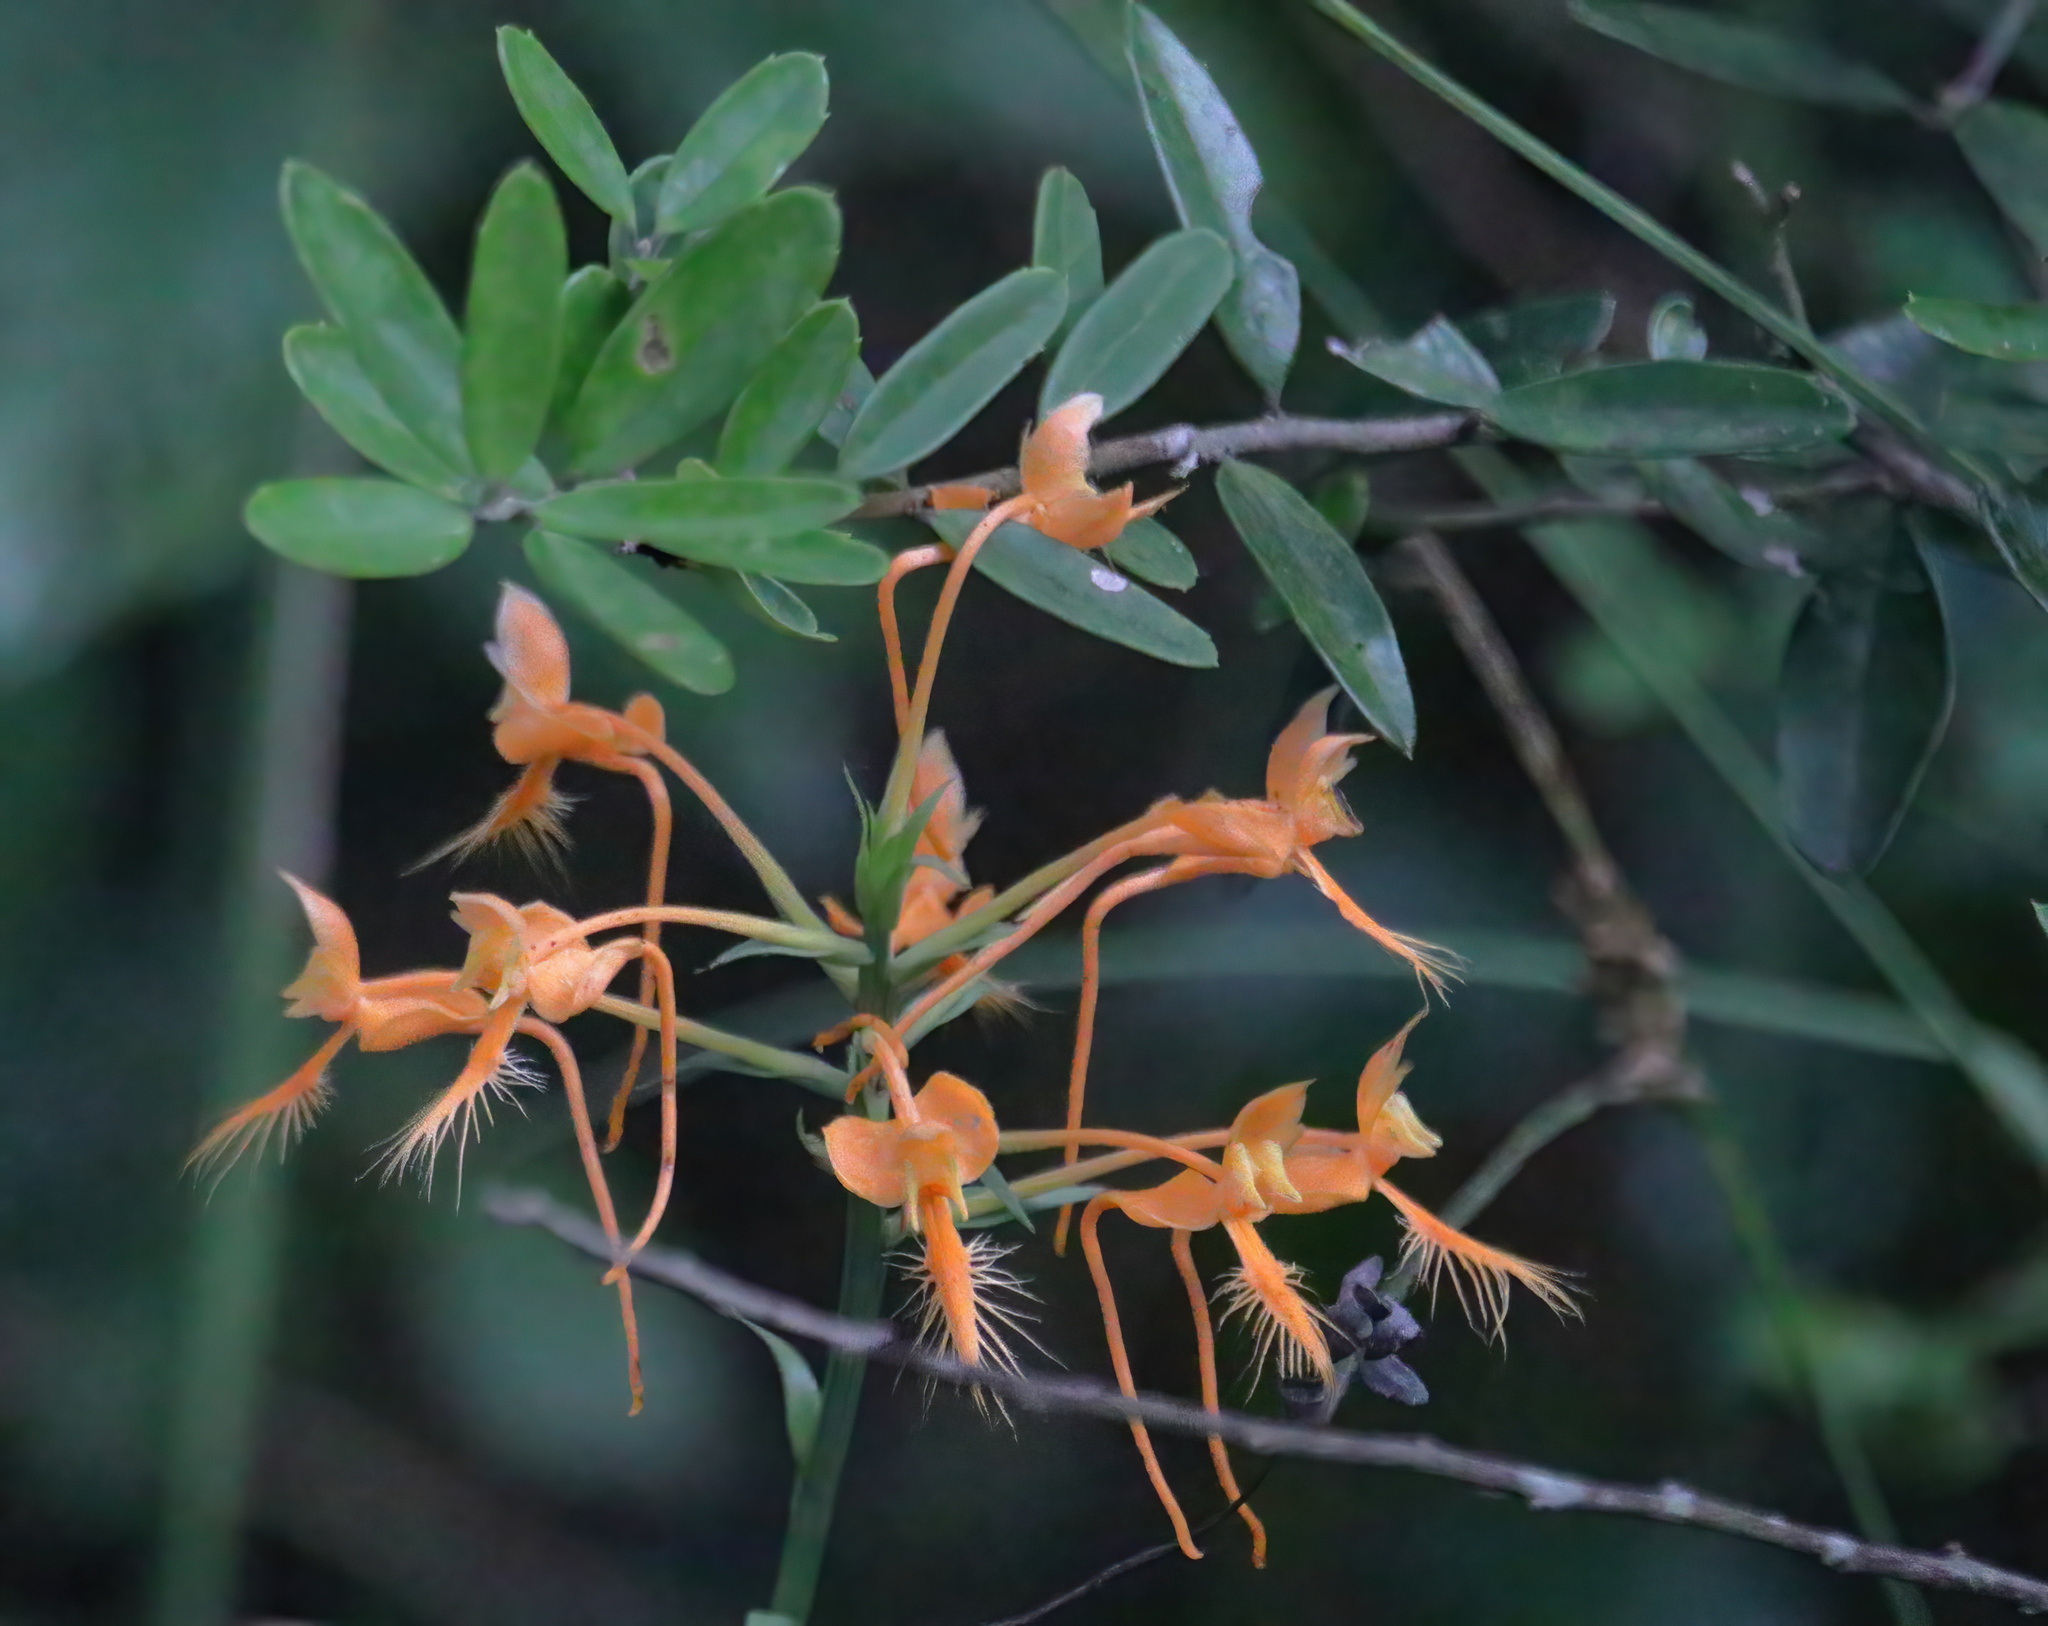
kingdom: Plantae
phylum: Tracheophyta
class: Liliopsida
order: Asparagales
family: Orchidaceae
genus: Platanthera
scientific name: Platanthera ciliaris
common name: Yellow fringed orchid
